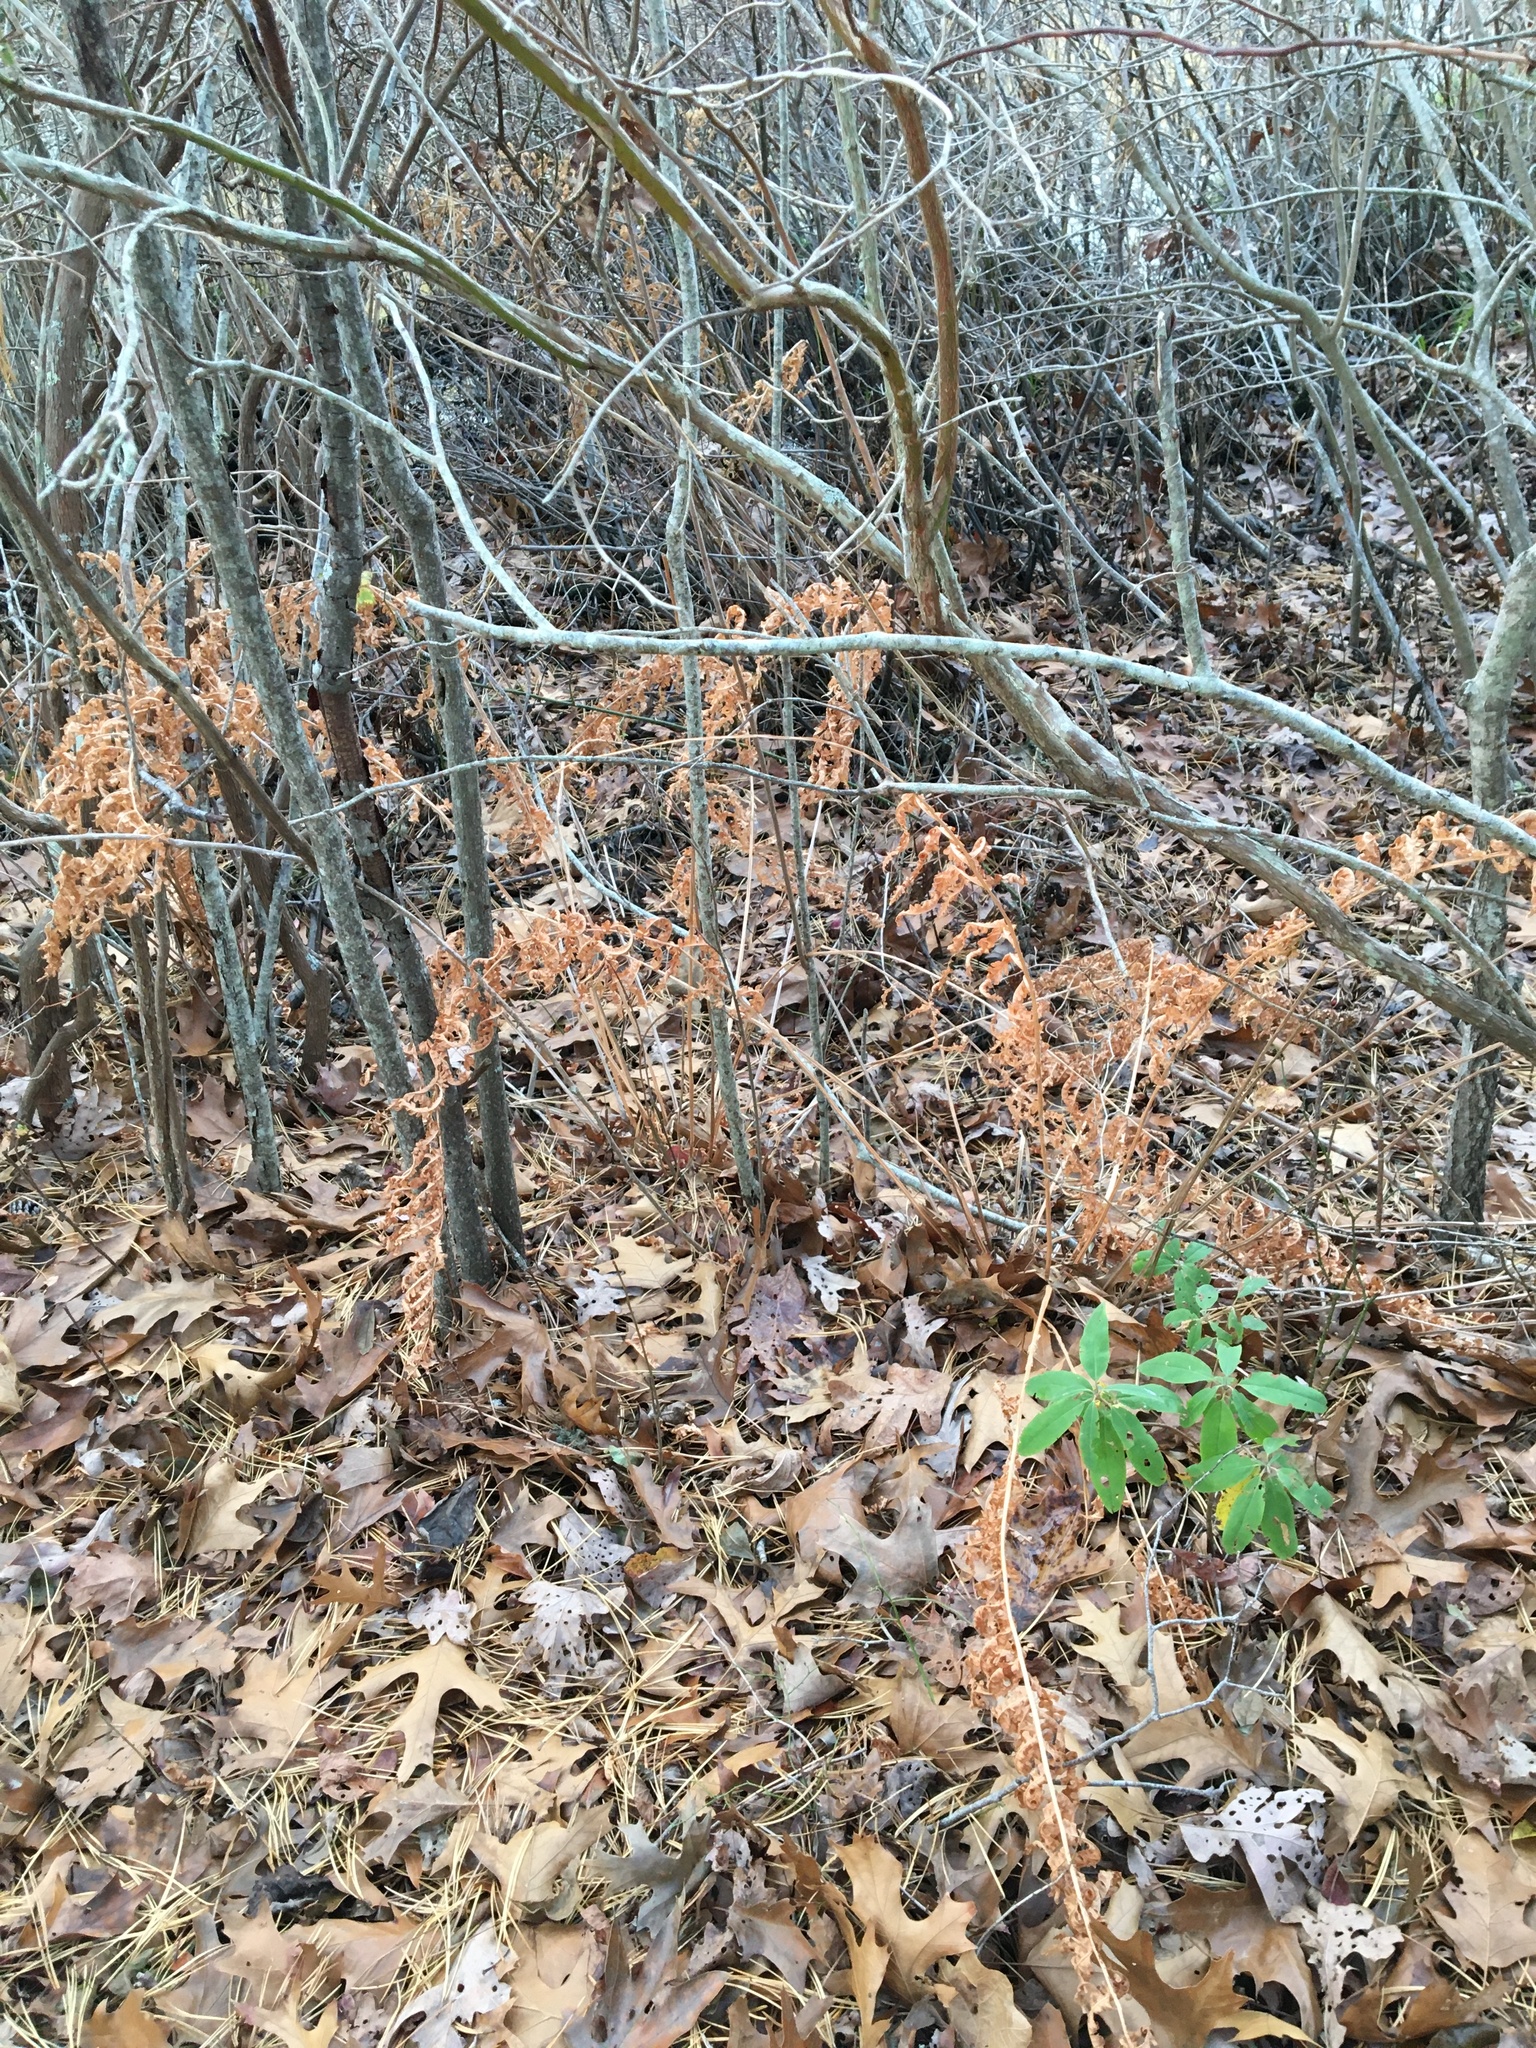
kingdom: Plantae
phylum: Tracheophyta
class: Polypodiopsida
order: Osmundales
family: Osmundaceae
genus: Osmundastrum
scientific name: Osmundastrum cinnamomeum
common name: Cinnamon fern
